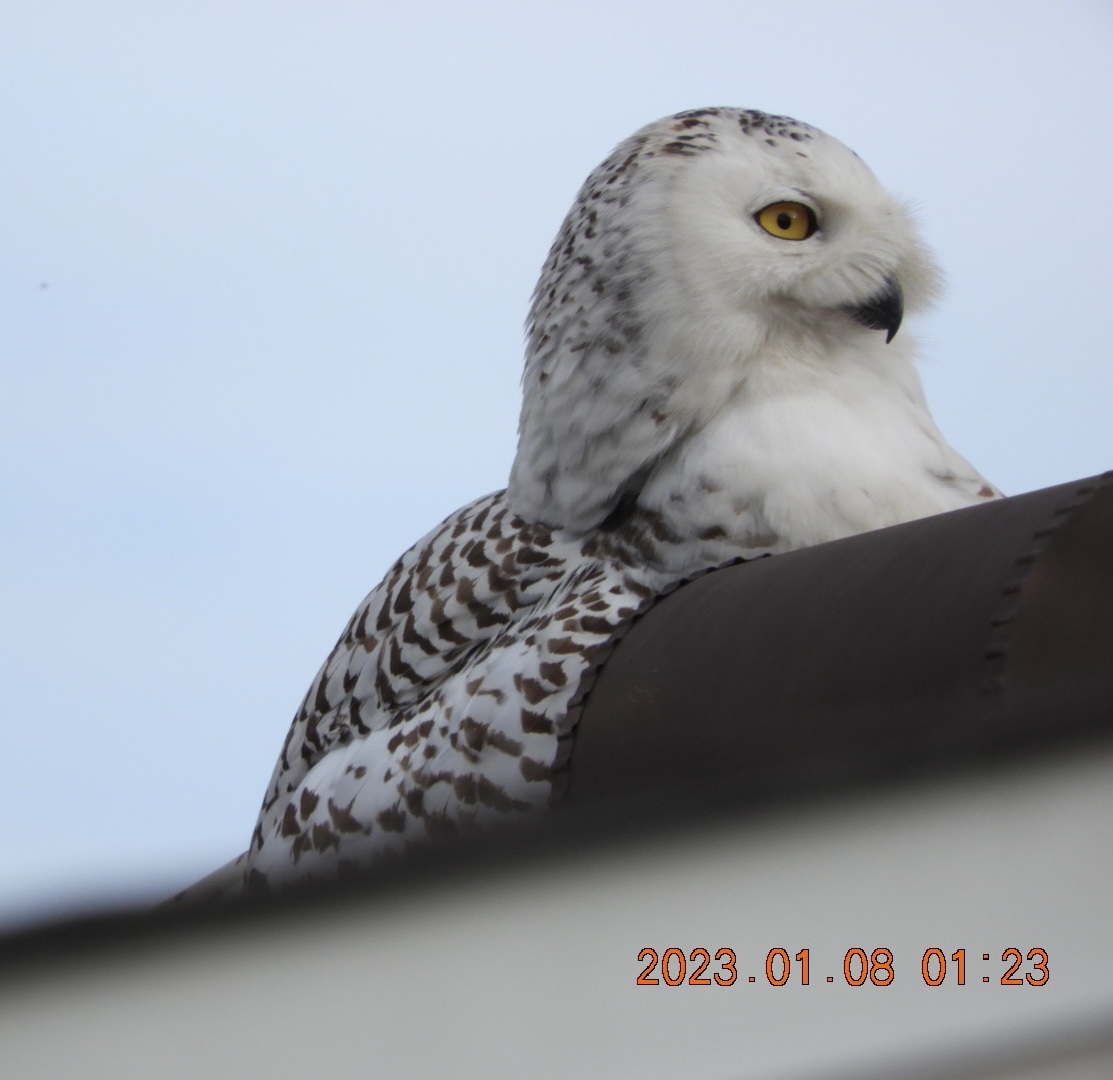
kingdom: Animalia
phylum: Chordata
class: Aves
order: Strigiformes
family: Strigidae
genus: Bubo
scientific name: Bubo scandiacus
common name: Snowy owl
